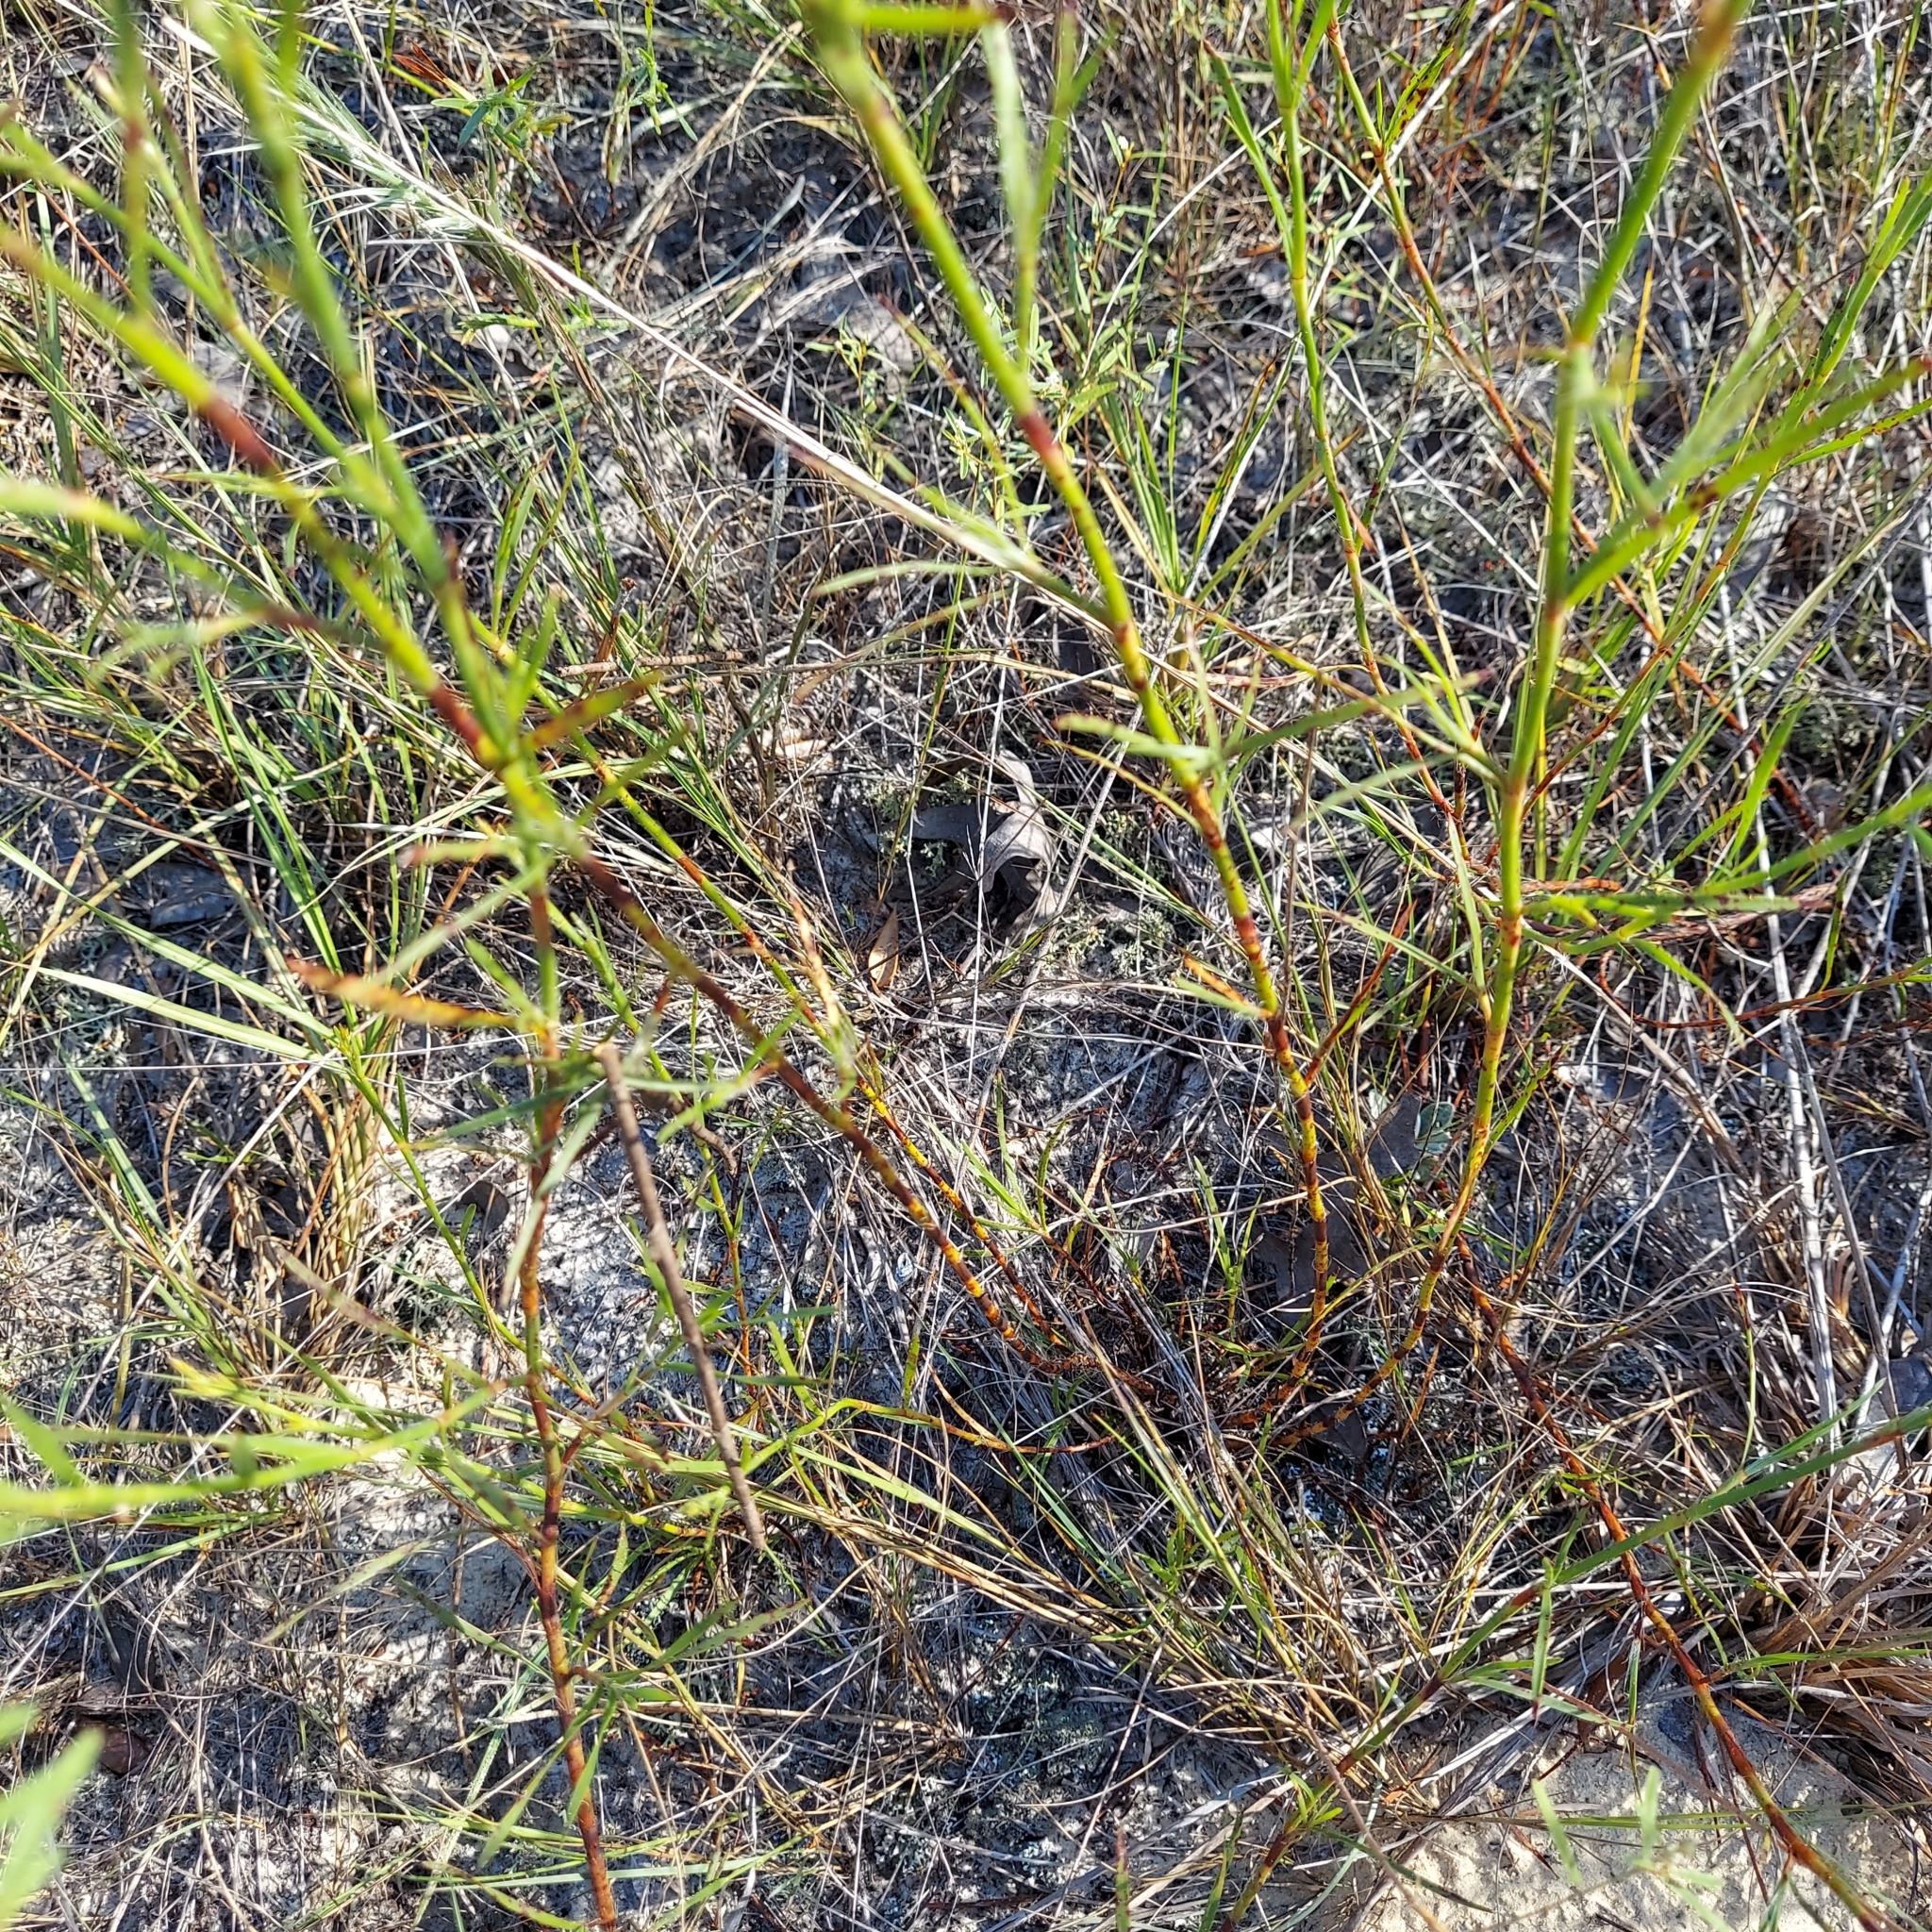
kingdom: Plantae
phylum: Tracheophyta
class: Magnoliopsida
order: Caryophyllales
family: Polygonaceae
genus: Polygonella
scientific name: Polygonella robusta
